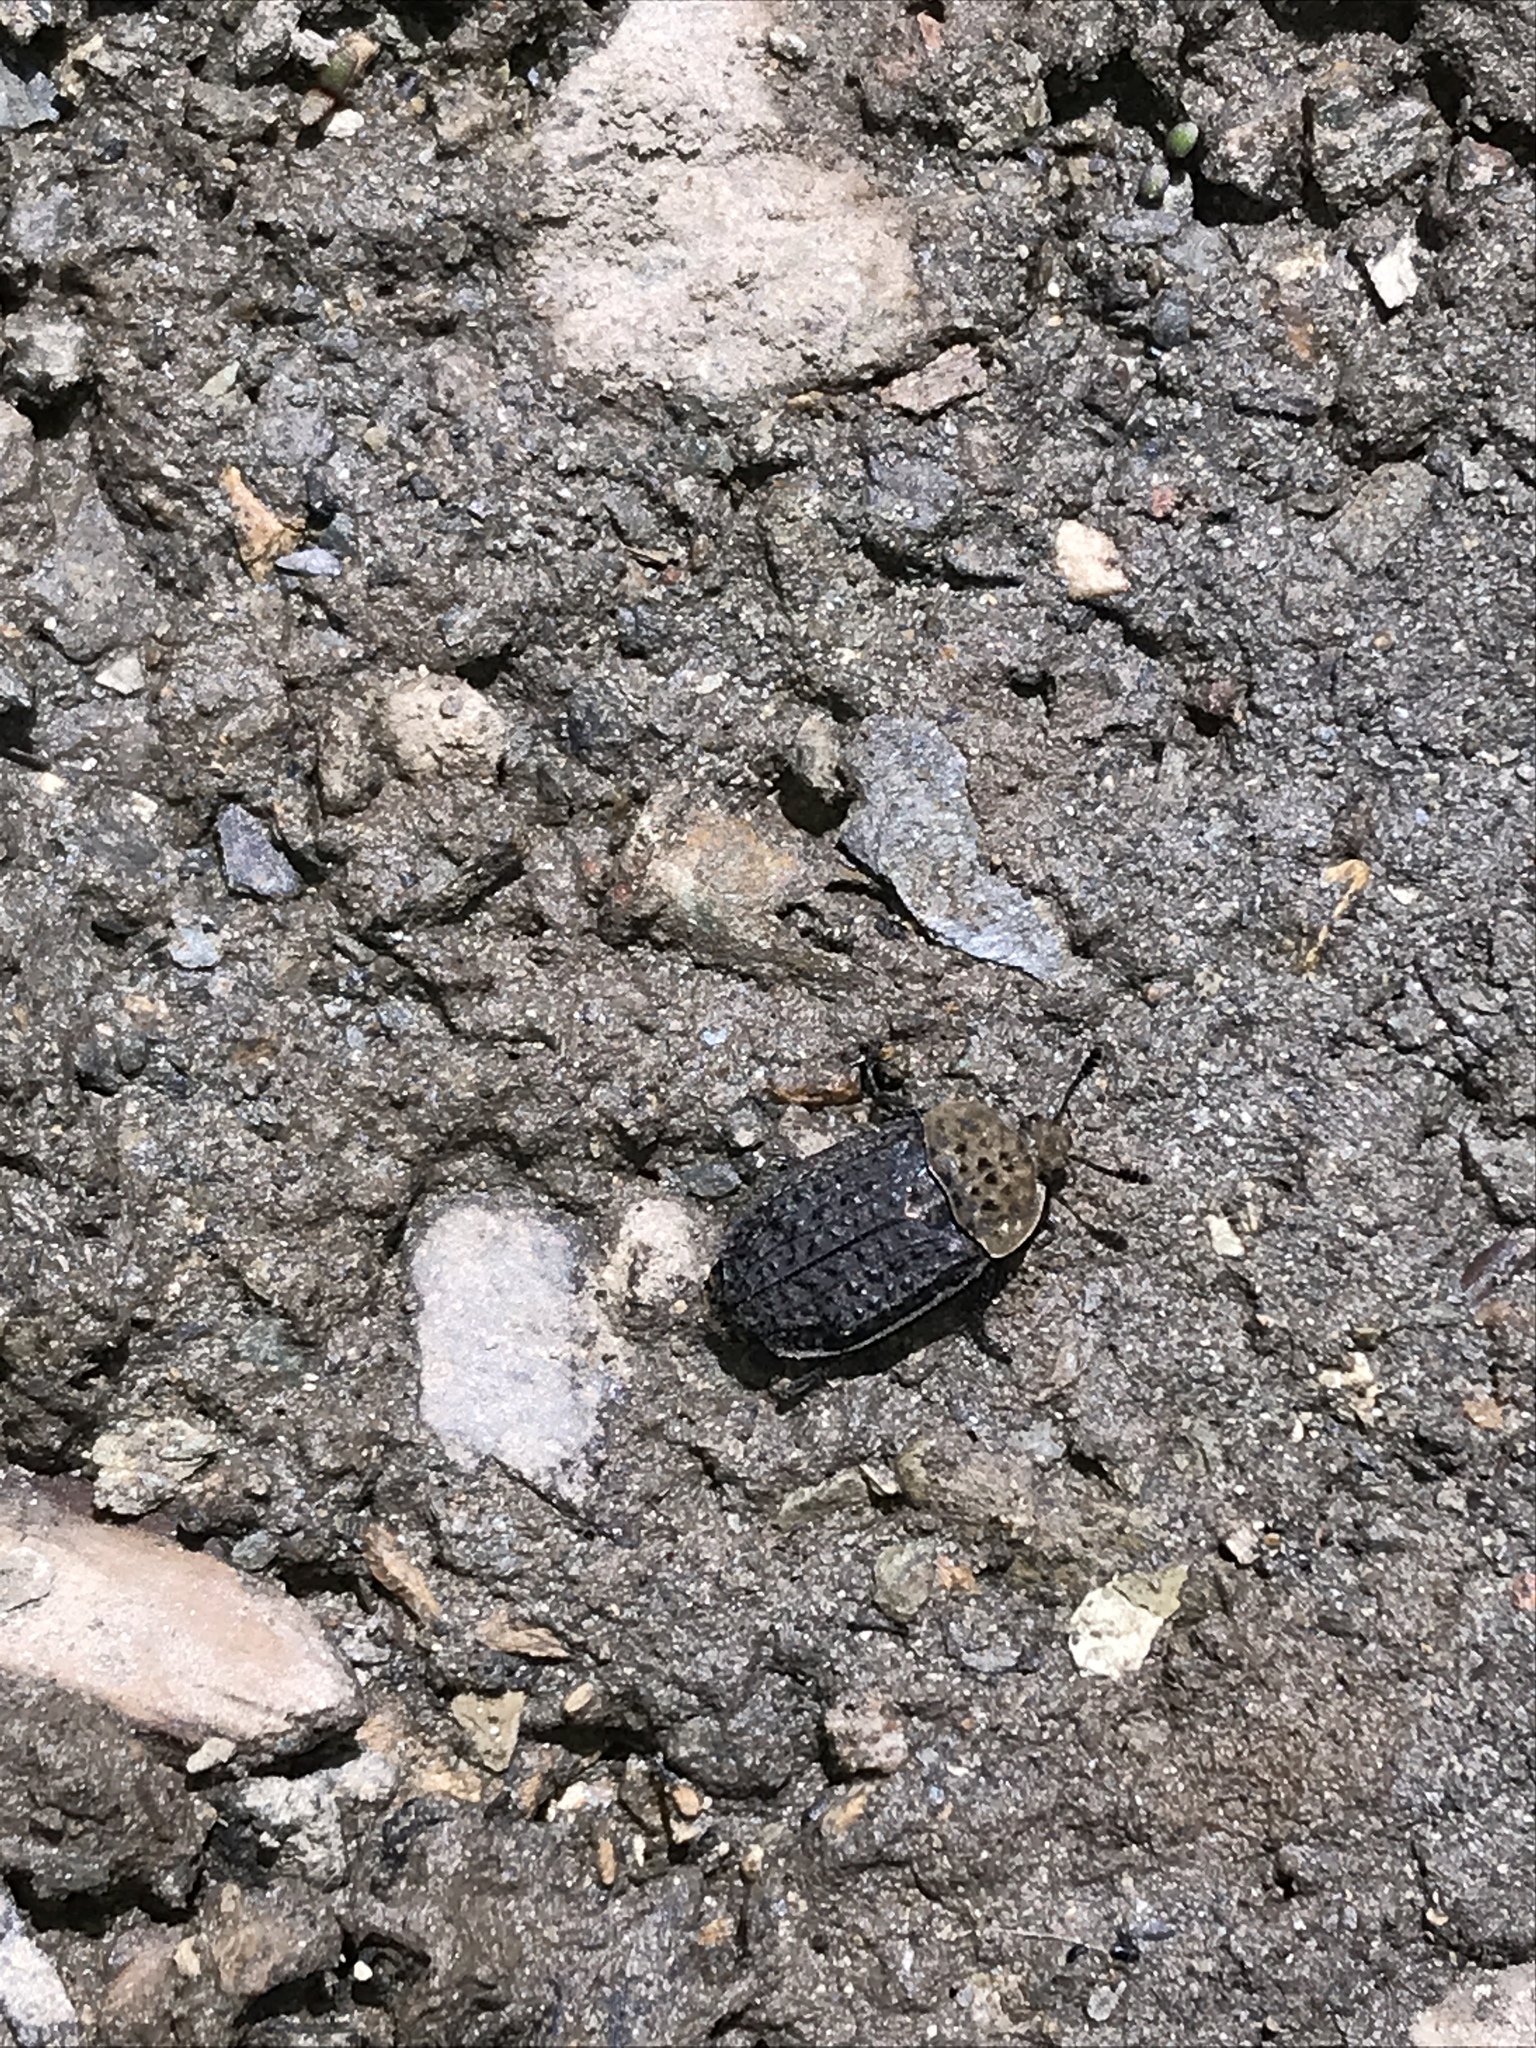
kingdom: Animalia
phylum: Arthropoda
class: Insecta
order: Coleoptera
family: Staphylinidae
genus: Thanatophilus
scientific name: Thanatophilus lapponicus
